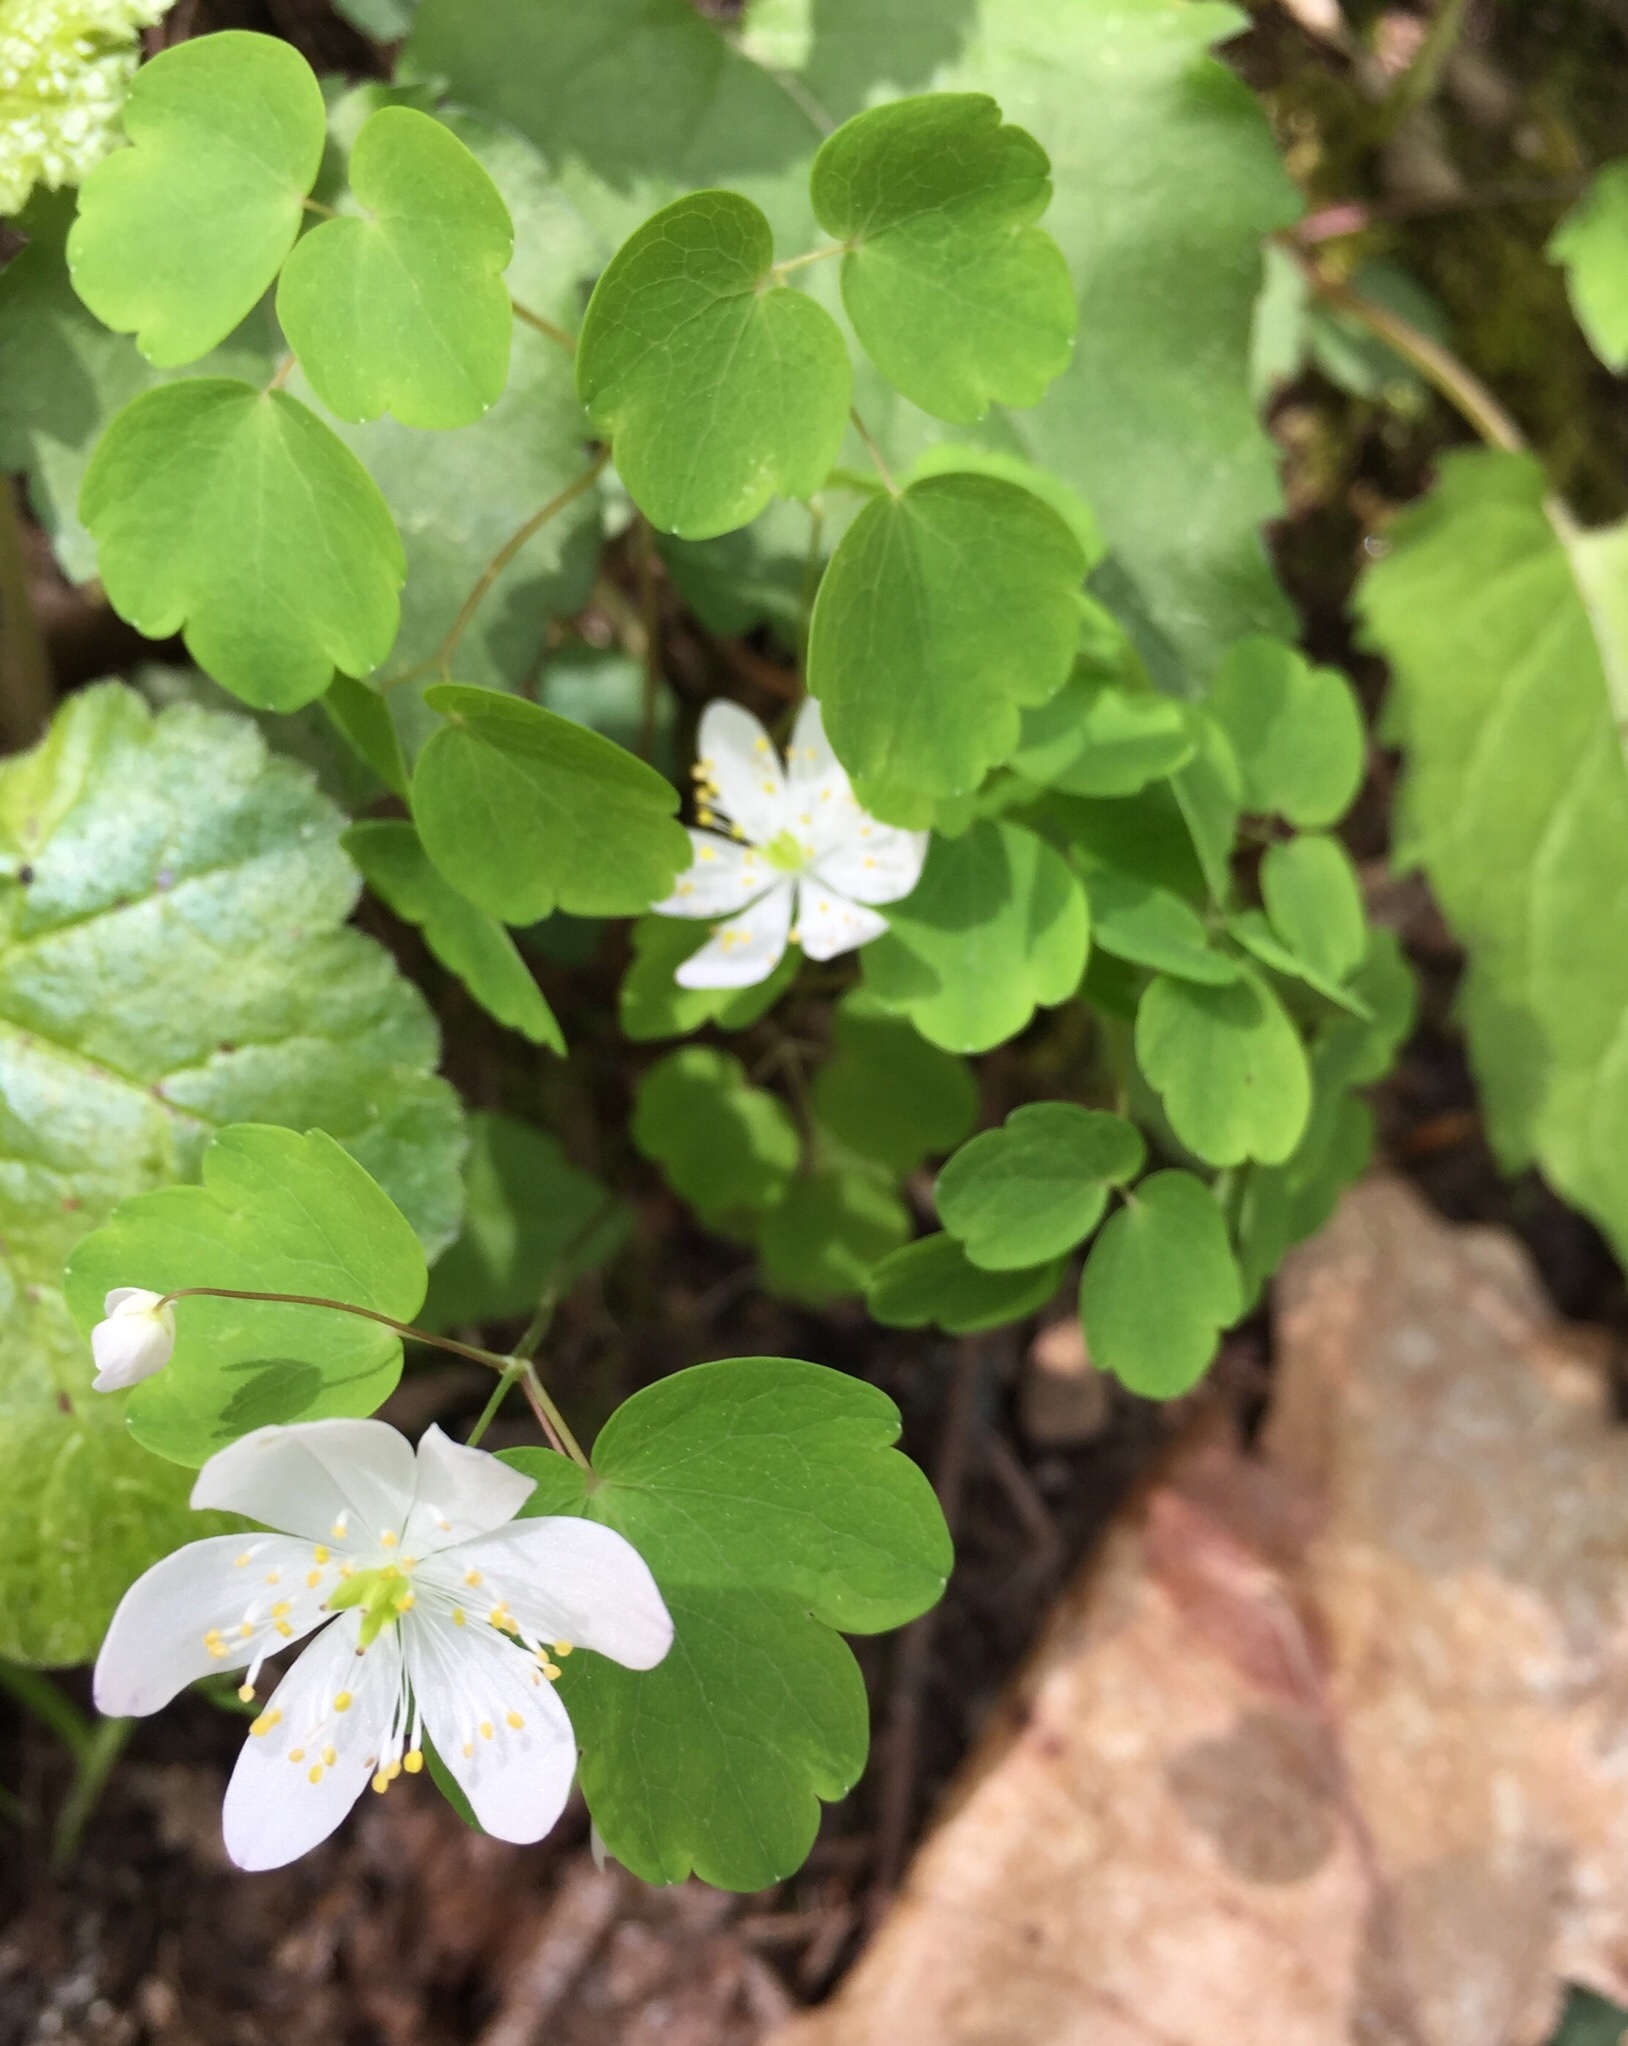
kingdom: Plantae
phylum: Tracheophyta
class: Magnoliopsida
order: Ranunculales
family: Ranunculaceae
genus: Thalictrum
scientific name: Thalictrum thalictroides
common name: Rue-anemone
